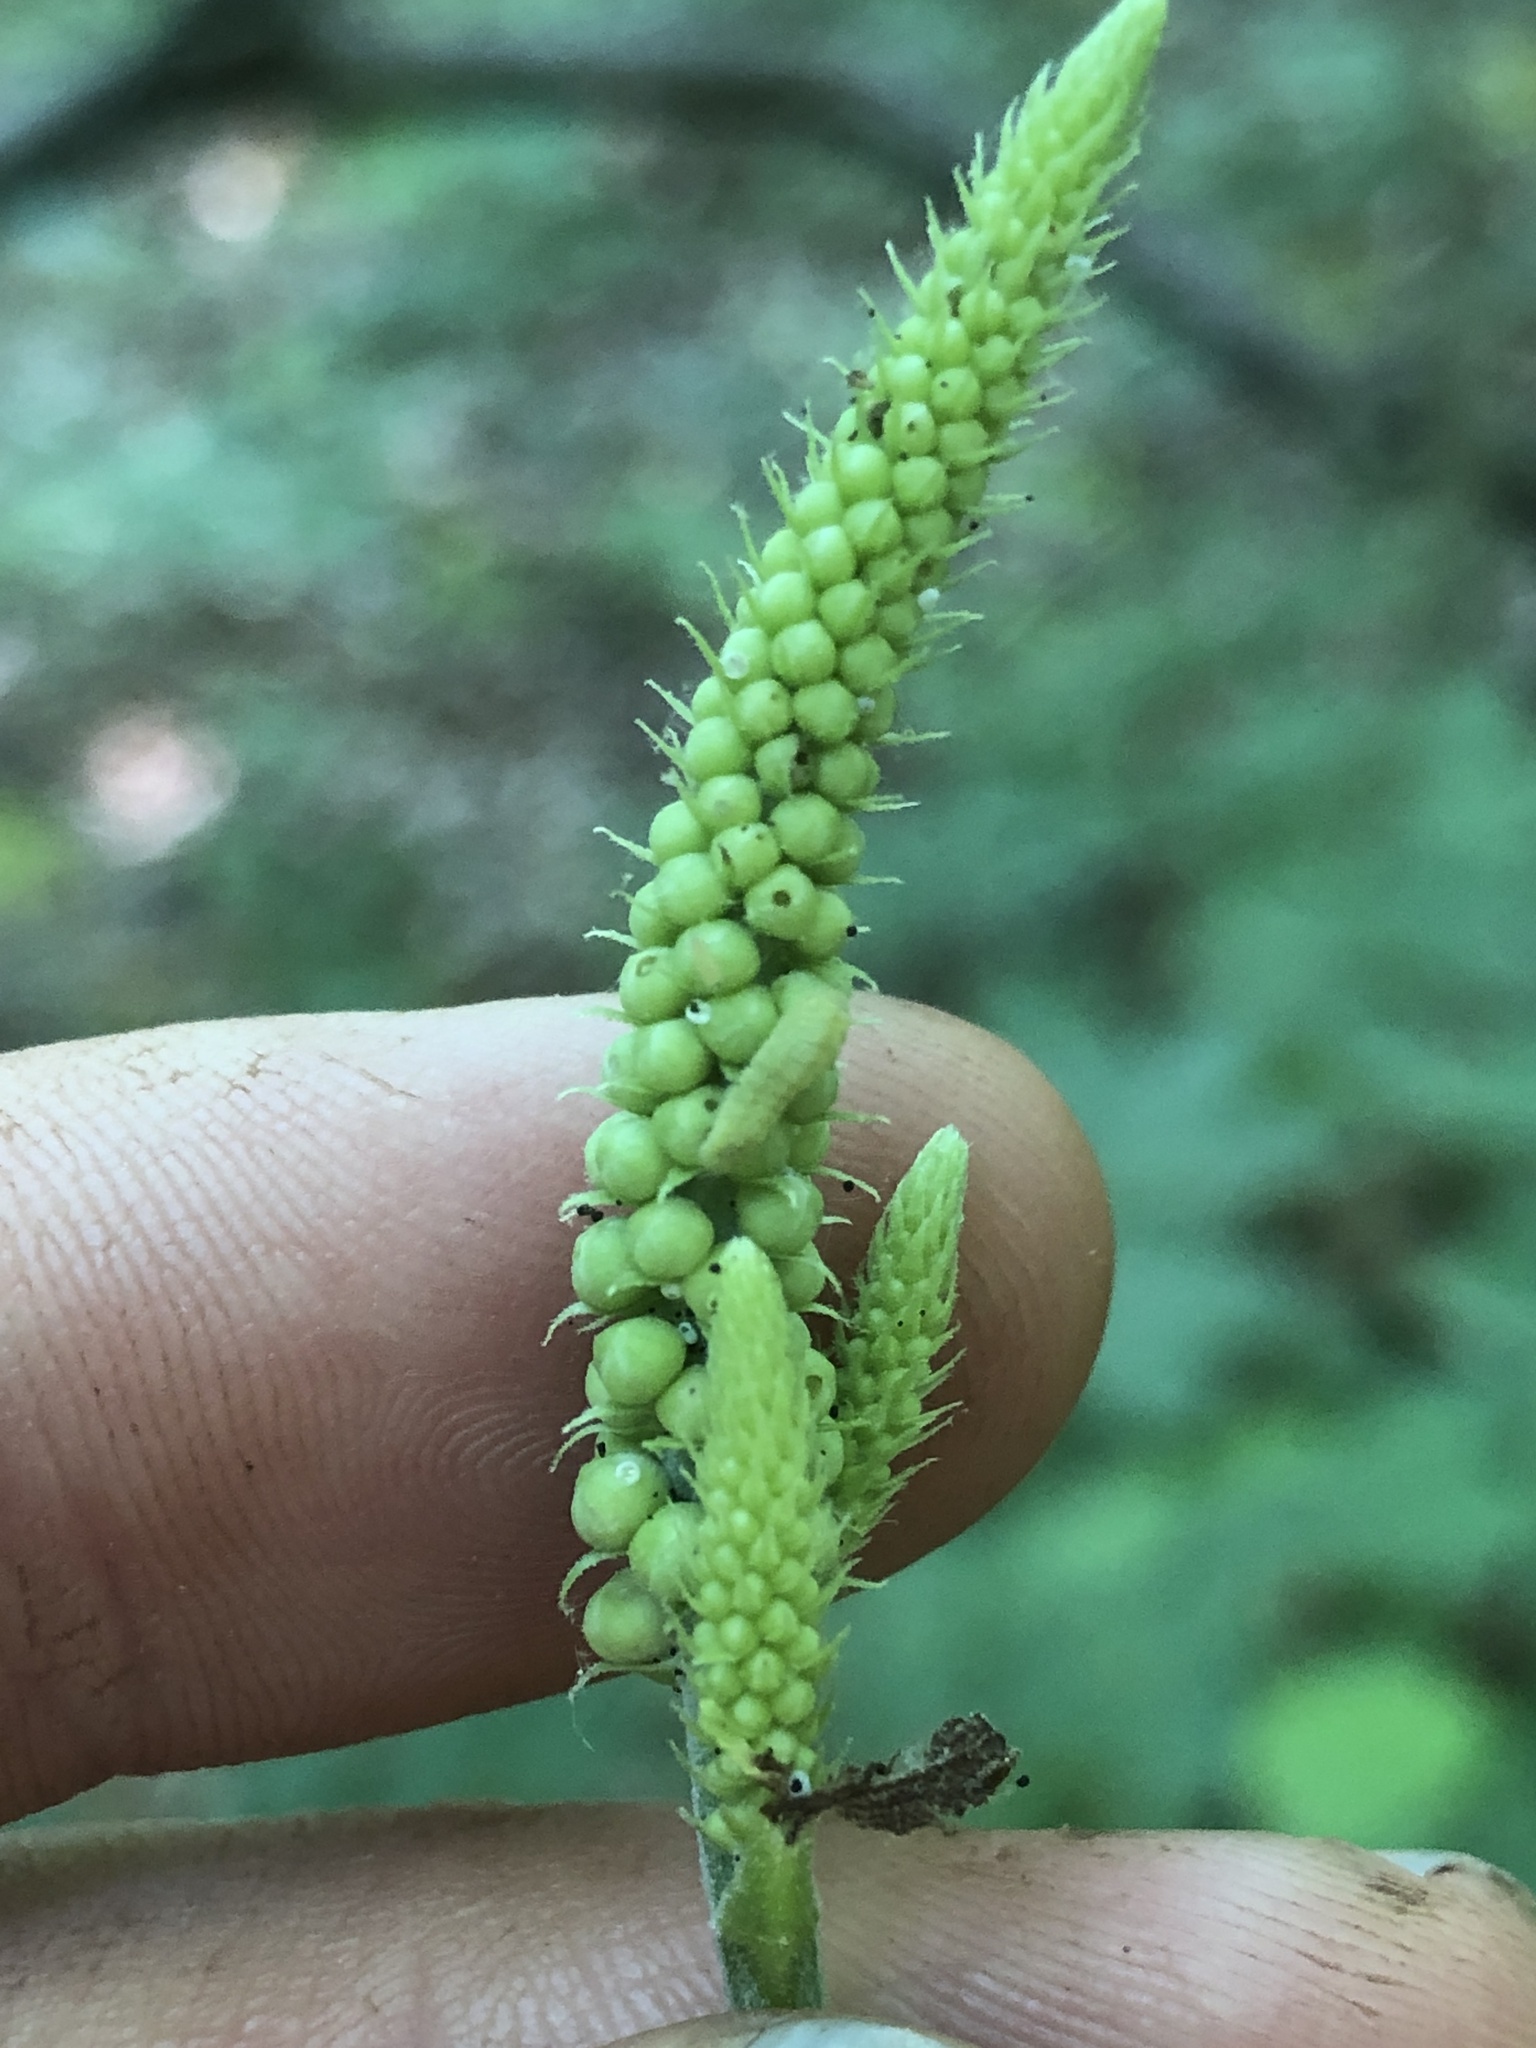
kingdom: Animalia
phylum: Arthropoda
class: Insecta
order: Lepidoptera
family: Lycaenidae
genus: Celastrina
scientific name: Celastrina neglectamajor
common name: Appalachian azure
